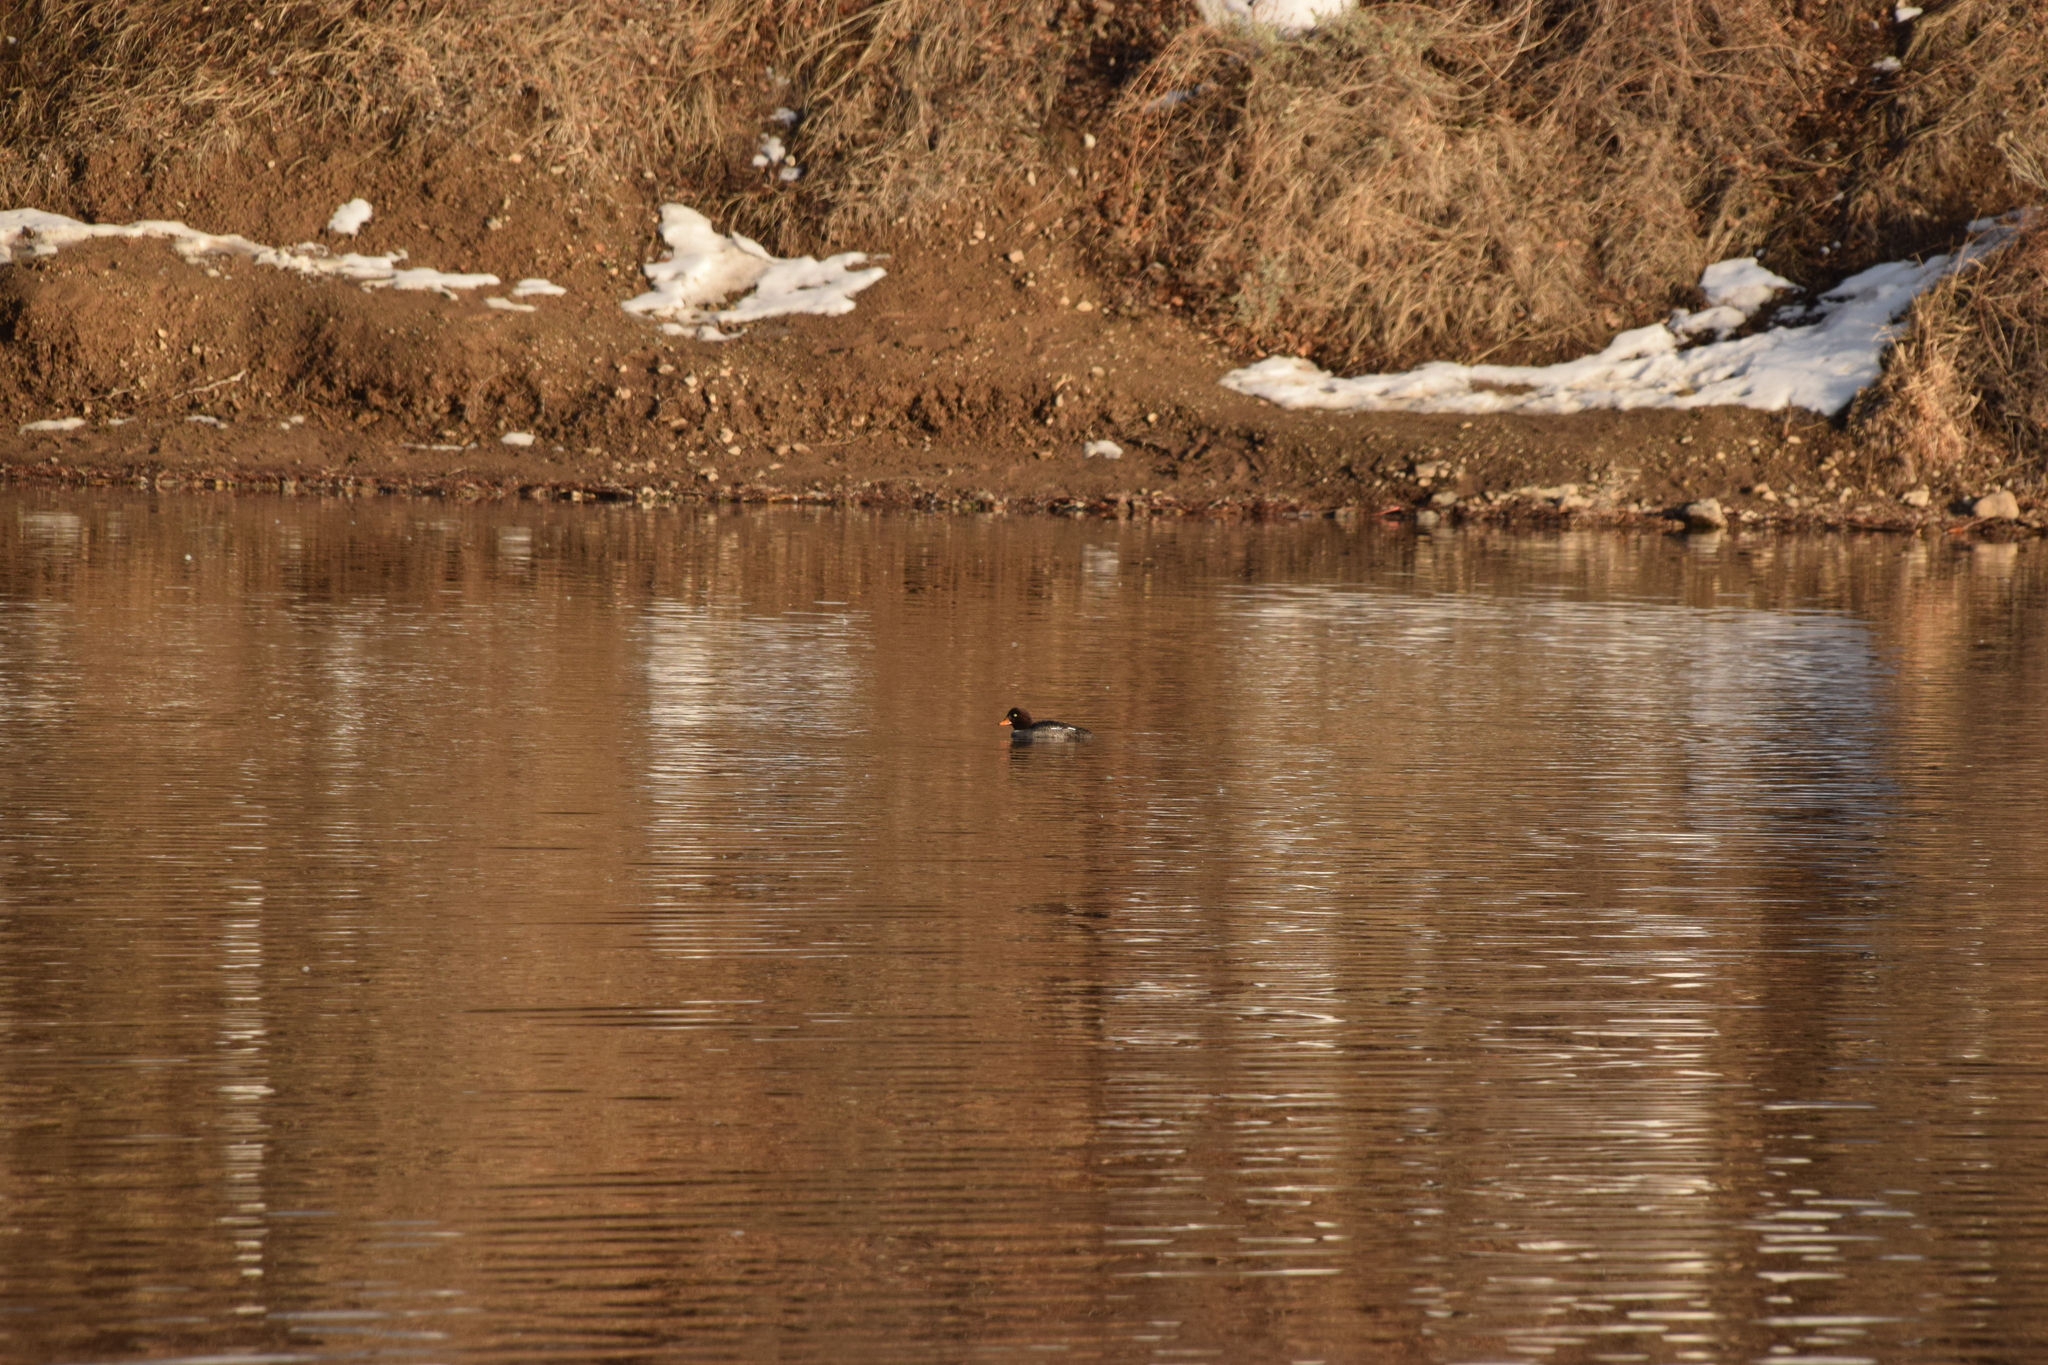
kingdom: Animalia
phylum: Chordata
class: Aves
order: Anseriformes
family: Anatidae
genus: Bucephala
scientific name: Bucephala clangula
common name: Common goldeneye
